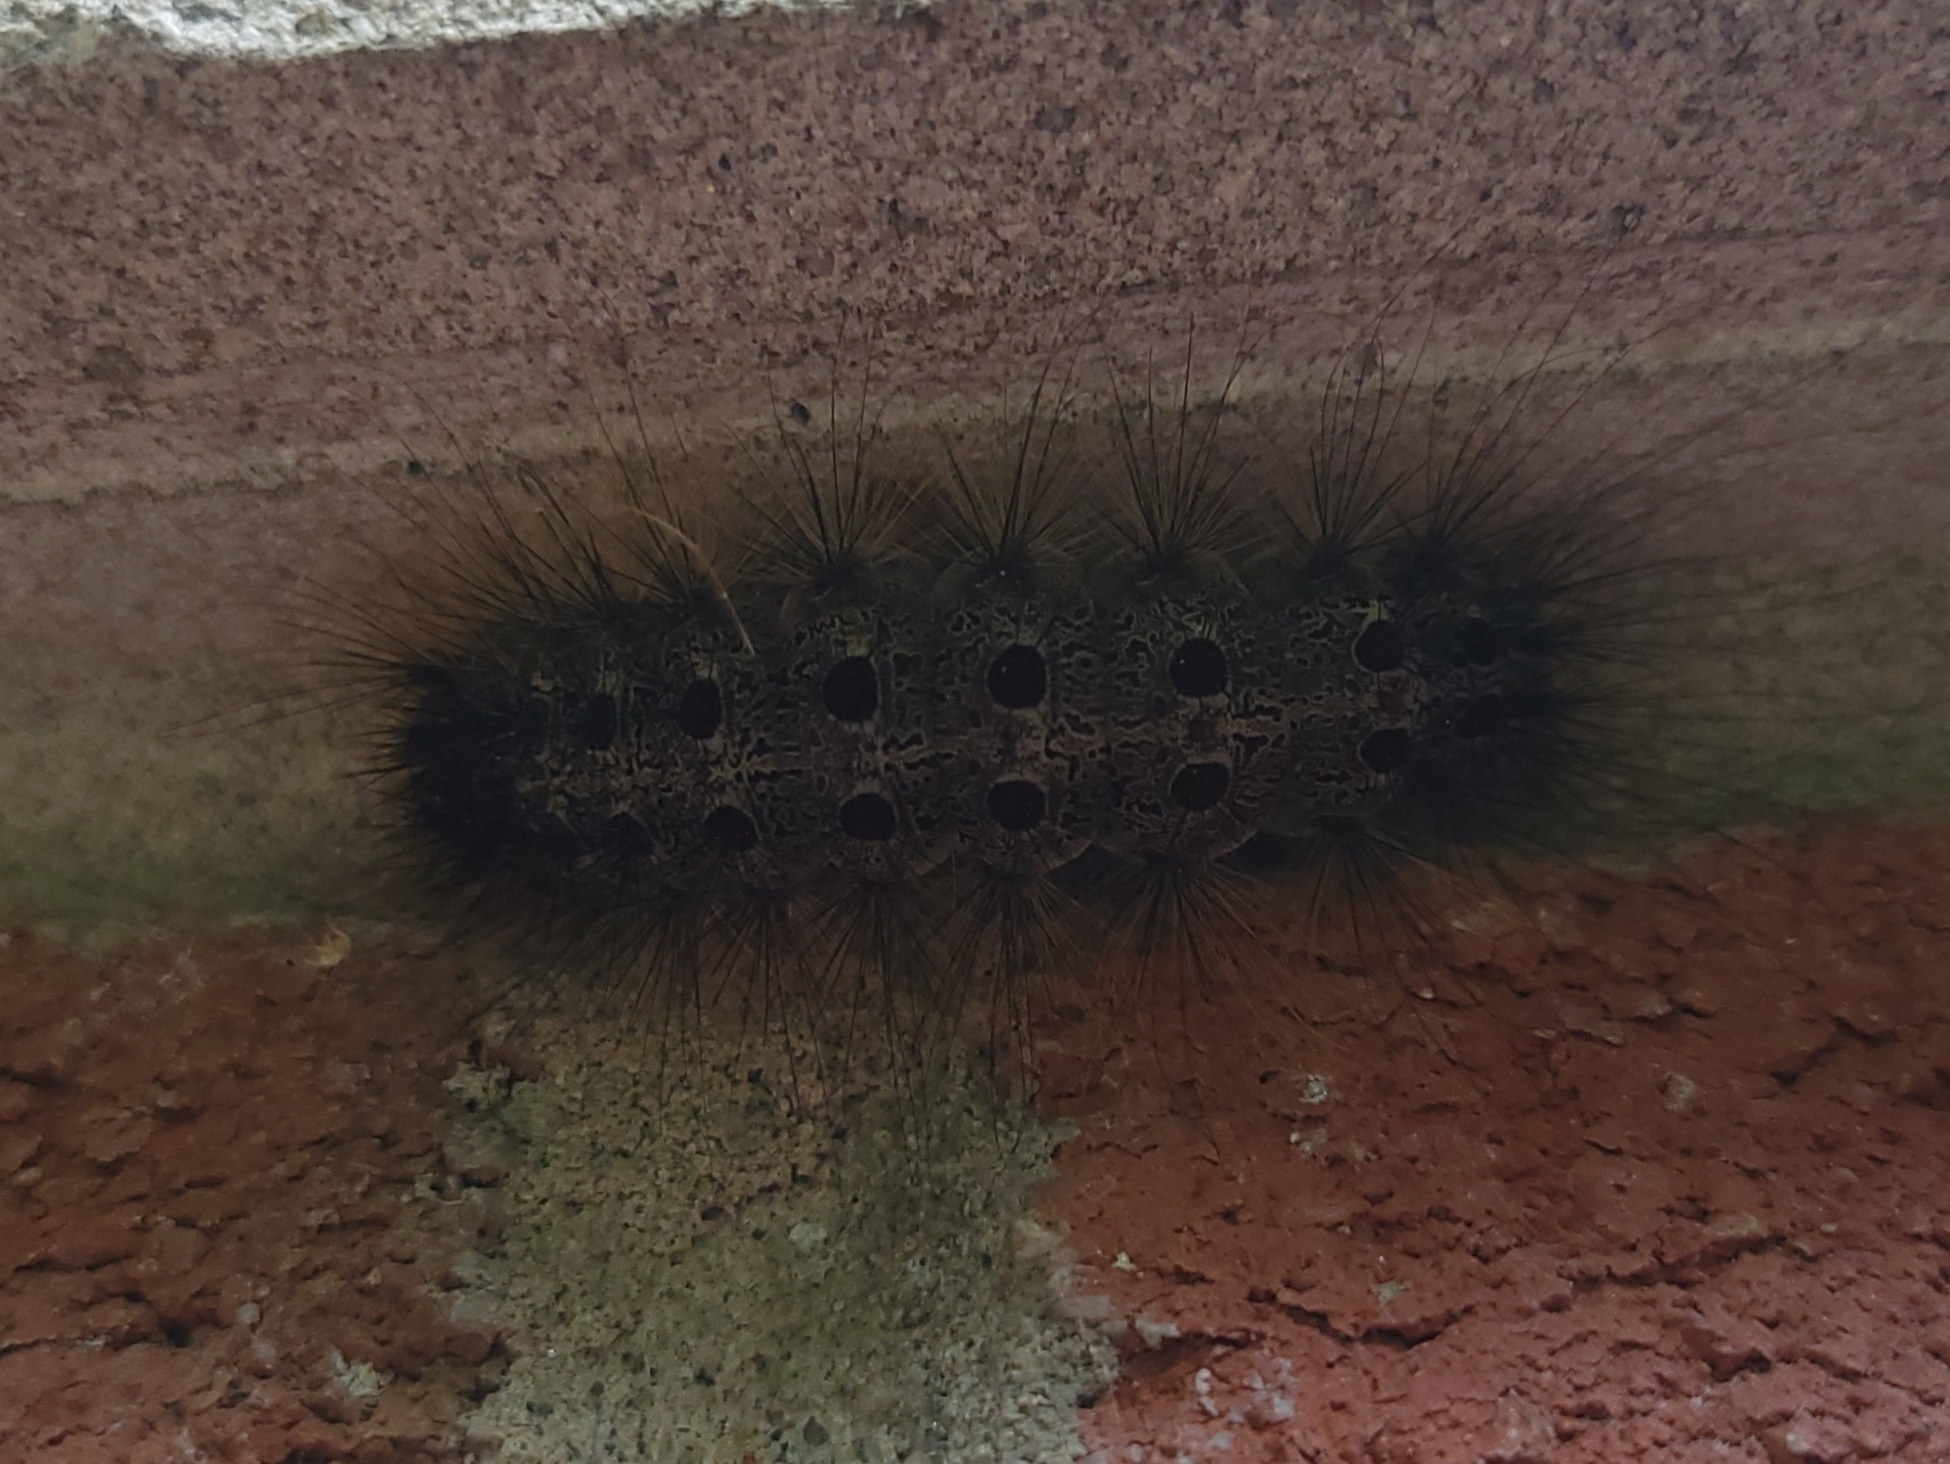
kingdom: Animalia
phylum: Arthropoda
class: Insecta
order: Lepidoptera
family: Erebidae
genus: Lymantria
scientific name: Lymantria dispar
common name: Gypsy moth
